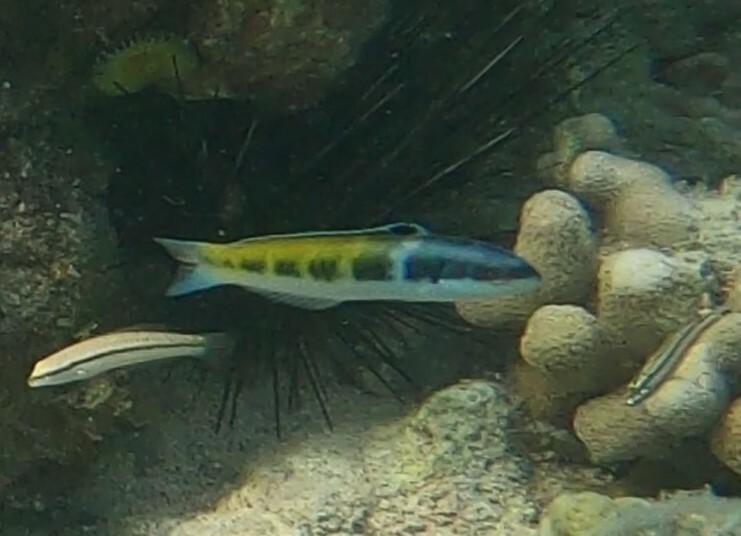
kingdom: Animalia
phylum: Chordata
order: Perciformes
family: Labridae
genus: Thalassoma
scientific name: Thalassoma bifasciatum
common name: Bluehead wrasse
